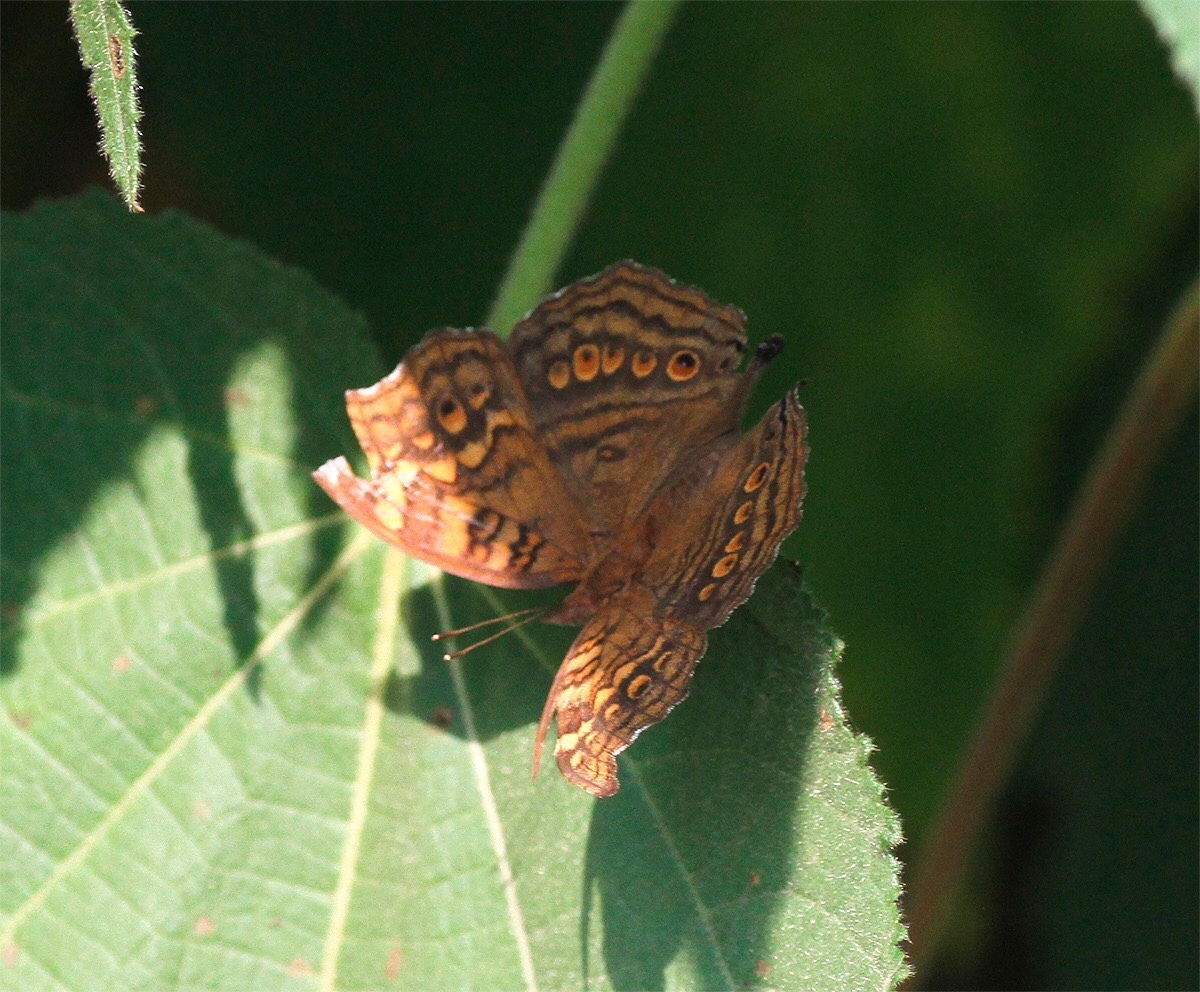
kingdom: Animalia
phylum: Arthropoda
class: Insecta
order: Lepidoptera
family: Nymphalidae
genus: Junonia
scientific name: Junonia chorimene
